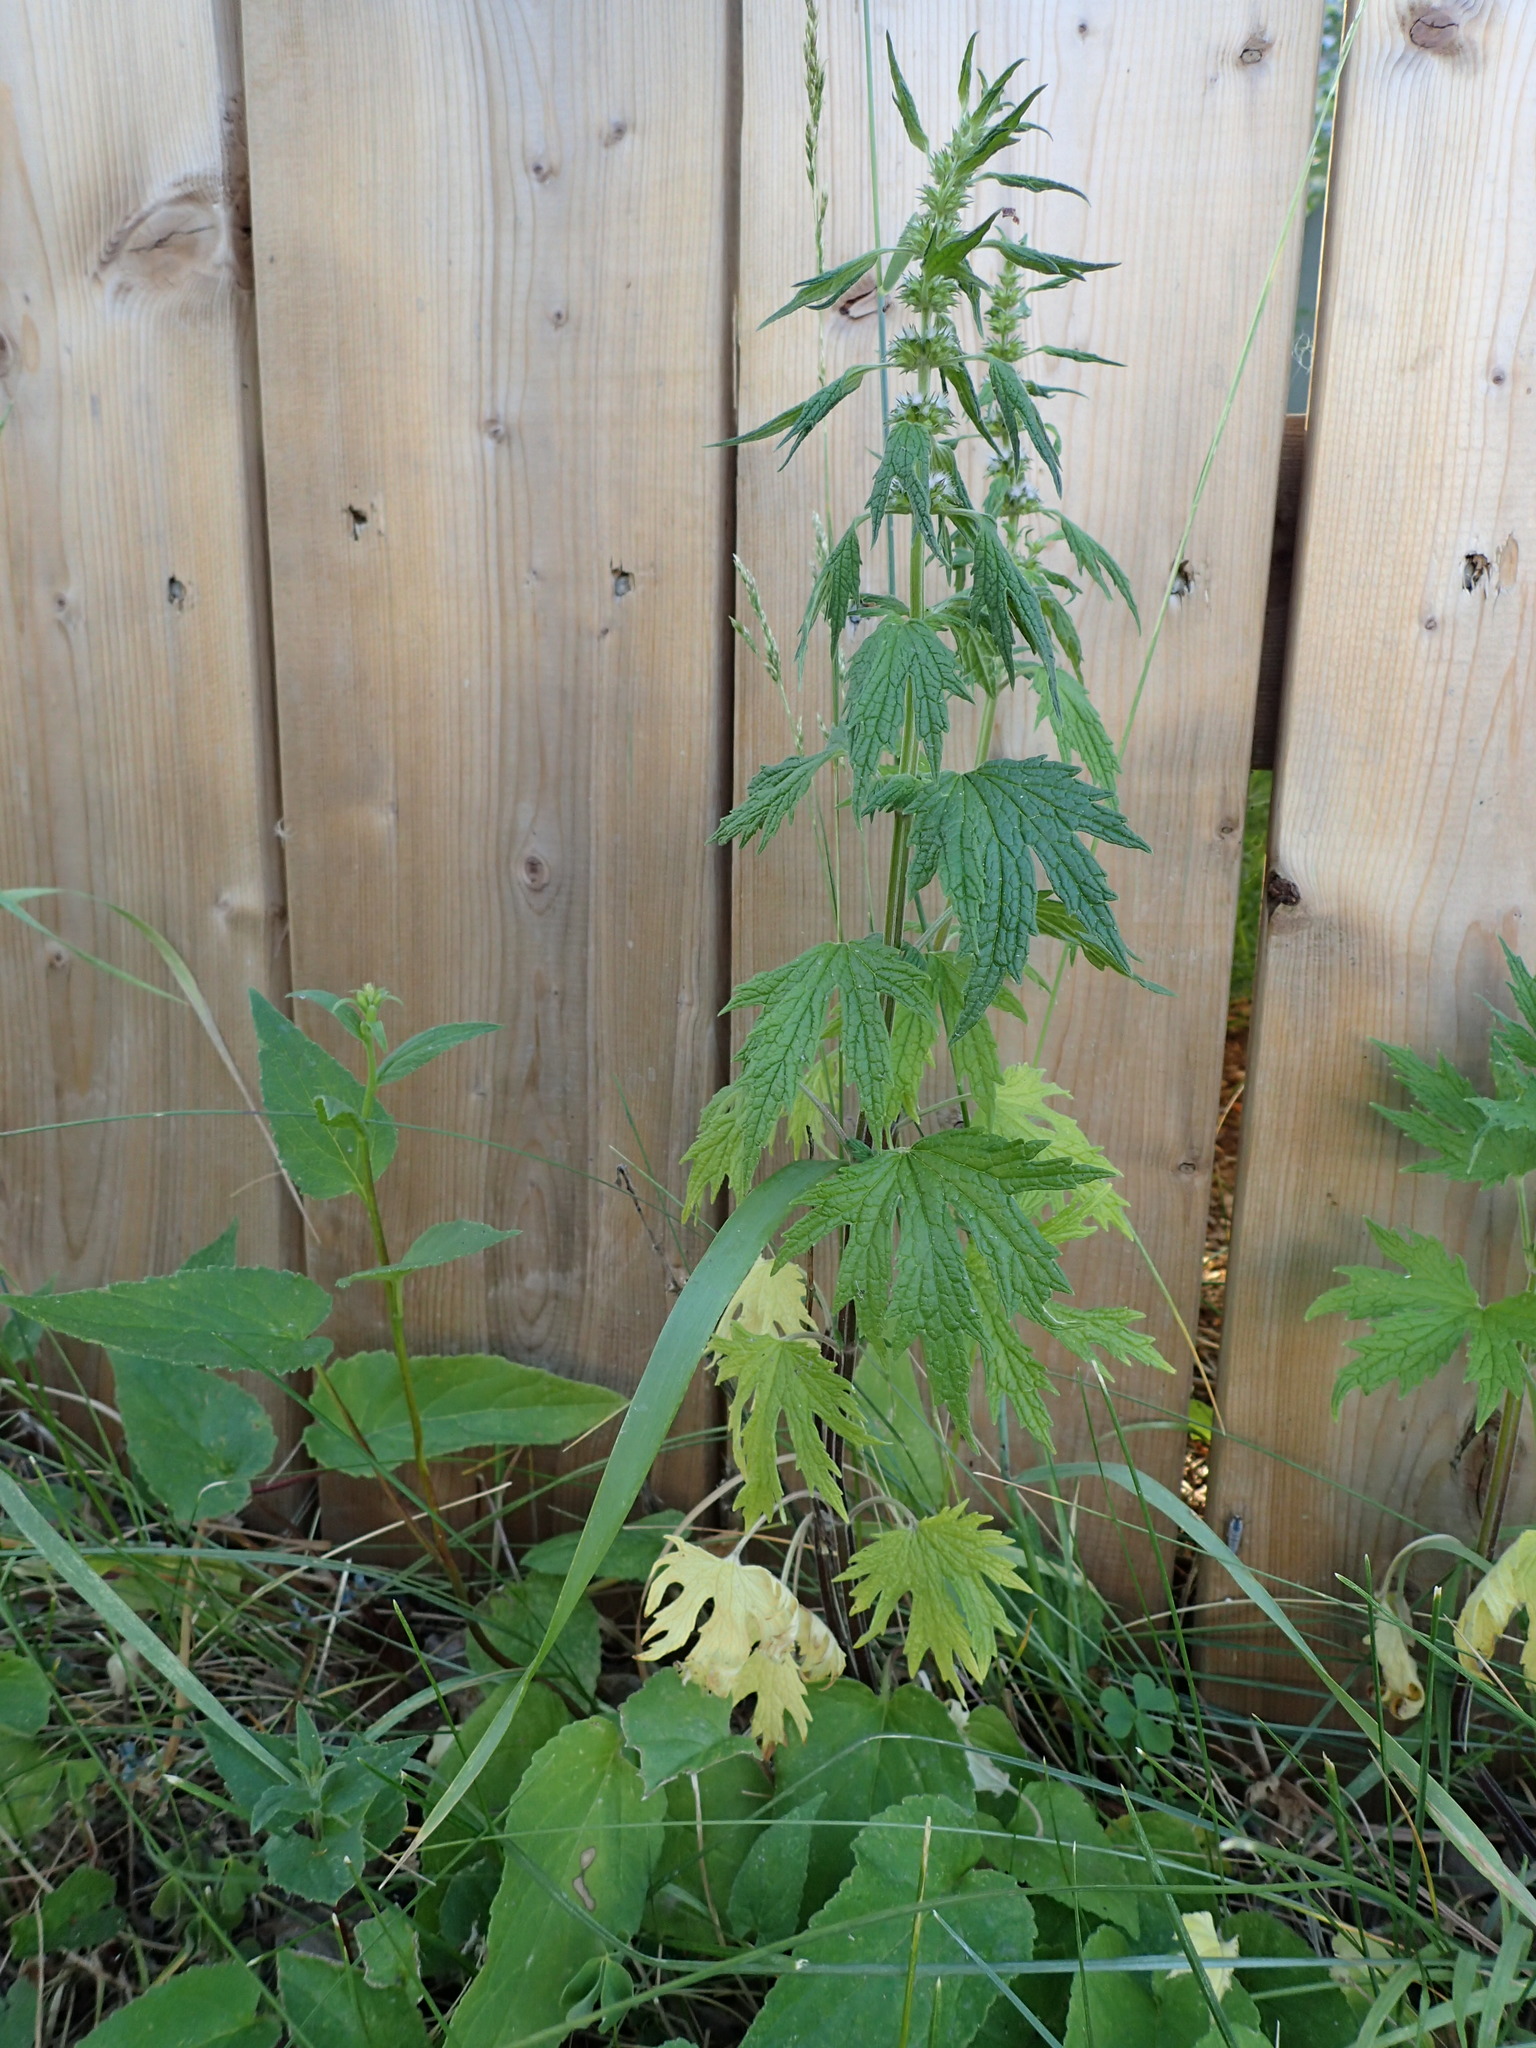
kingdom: Plantae
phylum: Tracheophyta
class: Magnoliopsida
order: Lamiales
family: Lamiaceae
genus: Leonurus
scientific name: Leonurus cardiaca
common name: Motherwort
